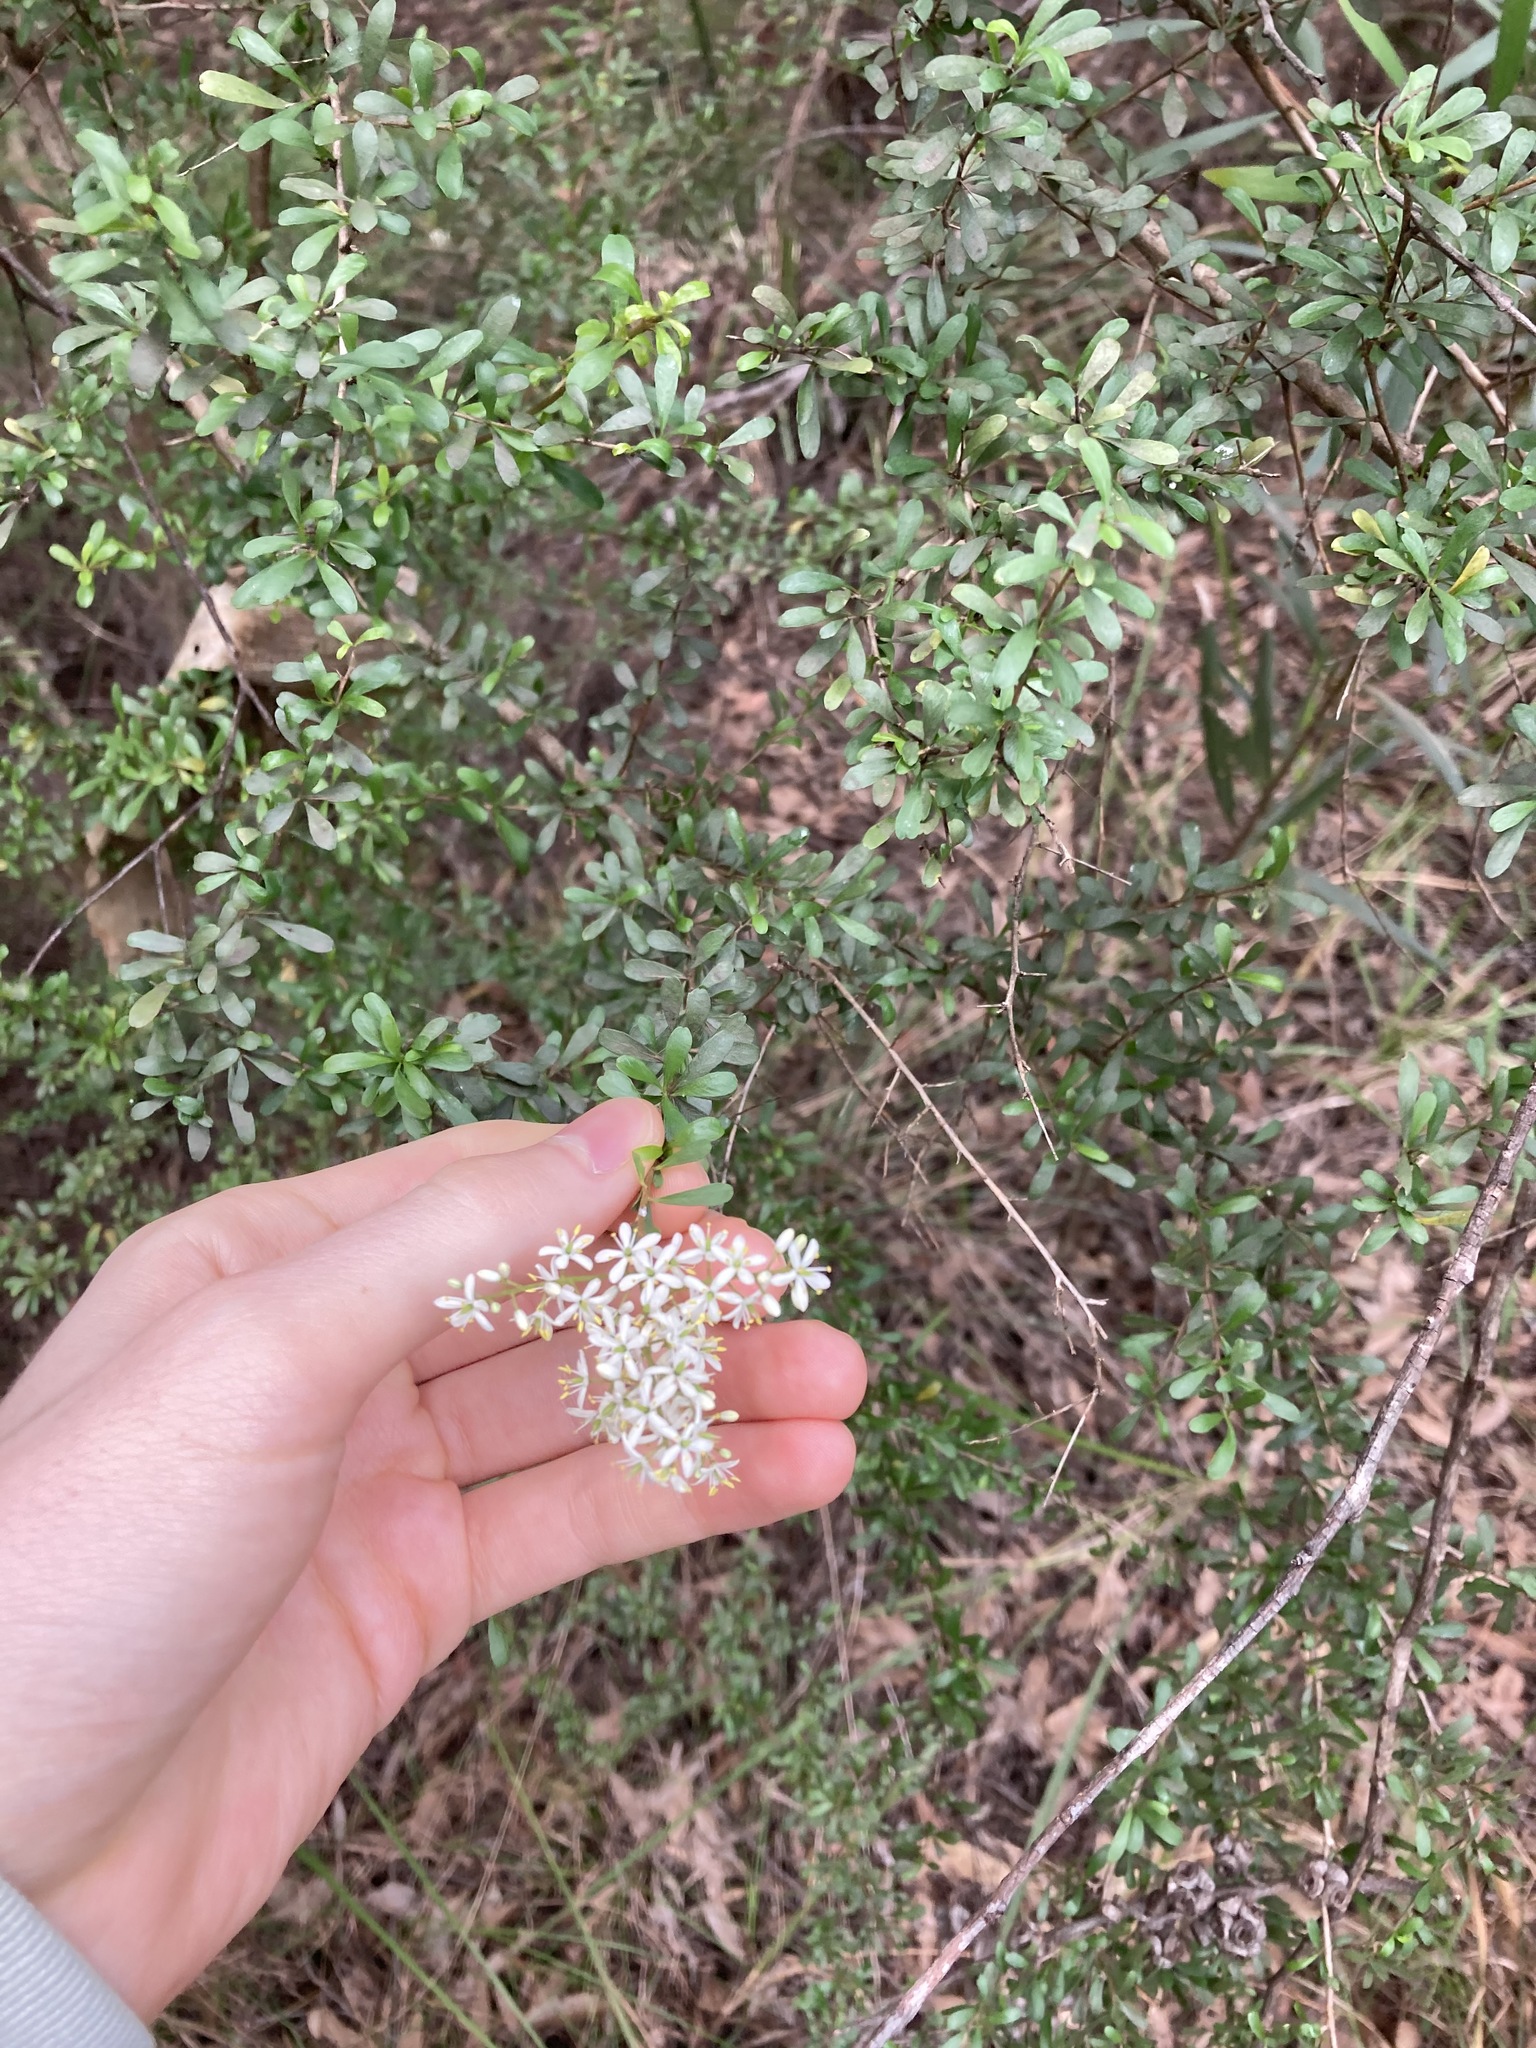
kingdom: Plantae
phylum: Tracheophyta
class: Magnoliopsida
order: Apiales
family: Pittosporaceae
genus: Bursaria
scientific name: Bursaria spinosa
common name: Australian blackthorn
